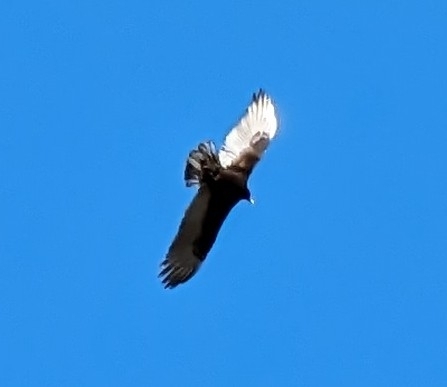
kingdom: Animalia
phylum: Chordata
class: Aves
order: Accipitriformes
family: Cathartidae
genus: Cathartes
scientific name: Cathartes aura
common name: Turkey vulture
